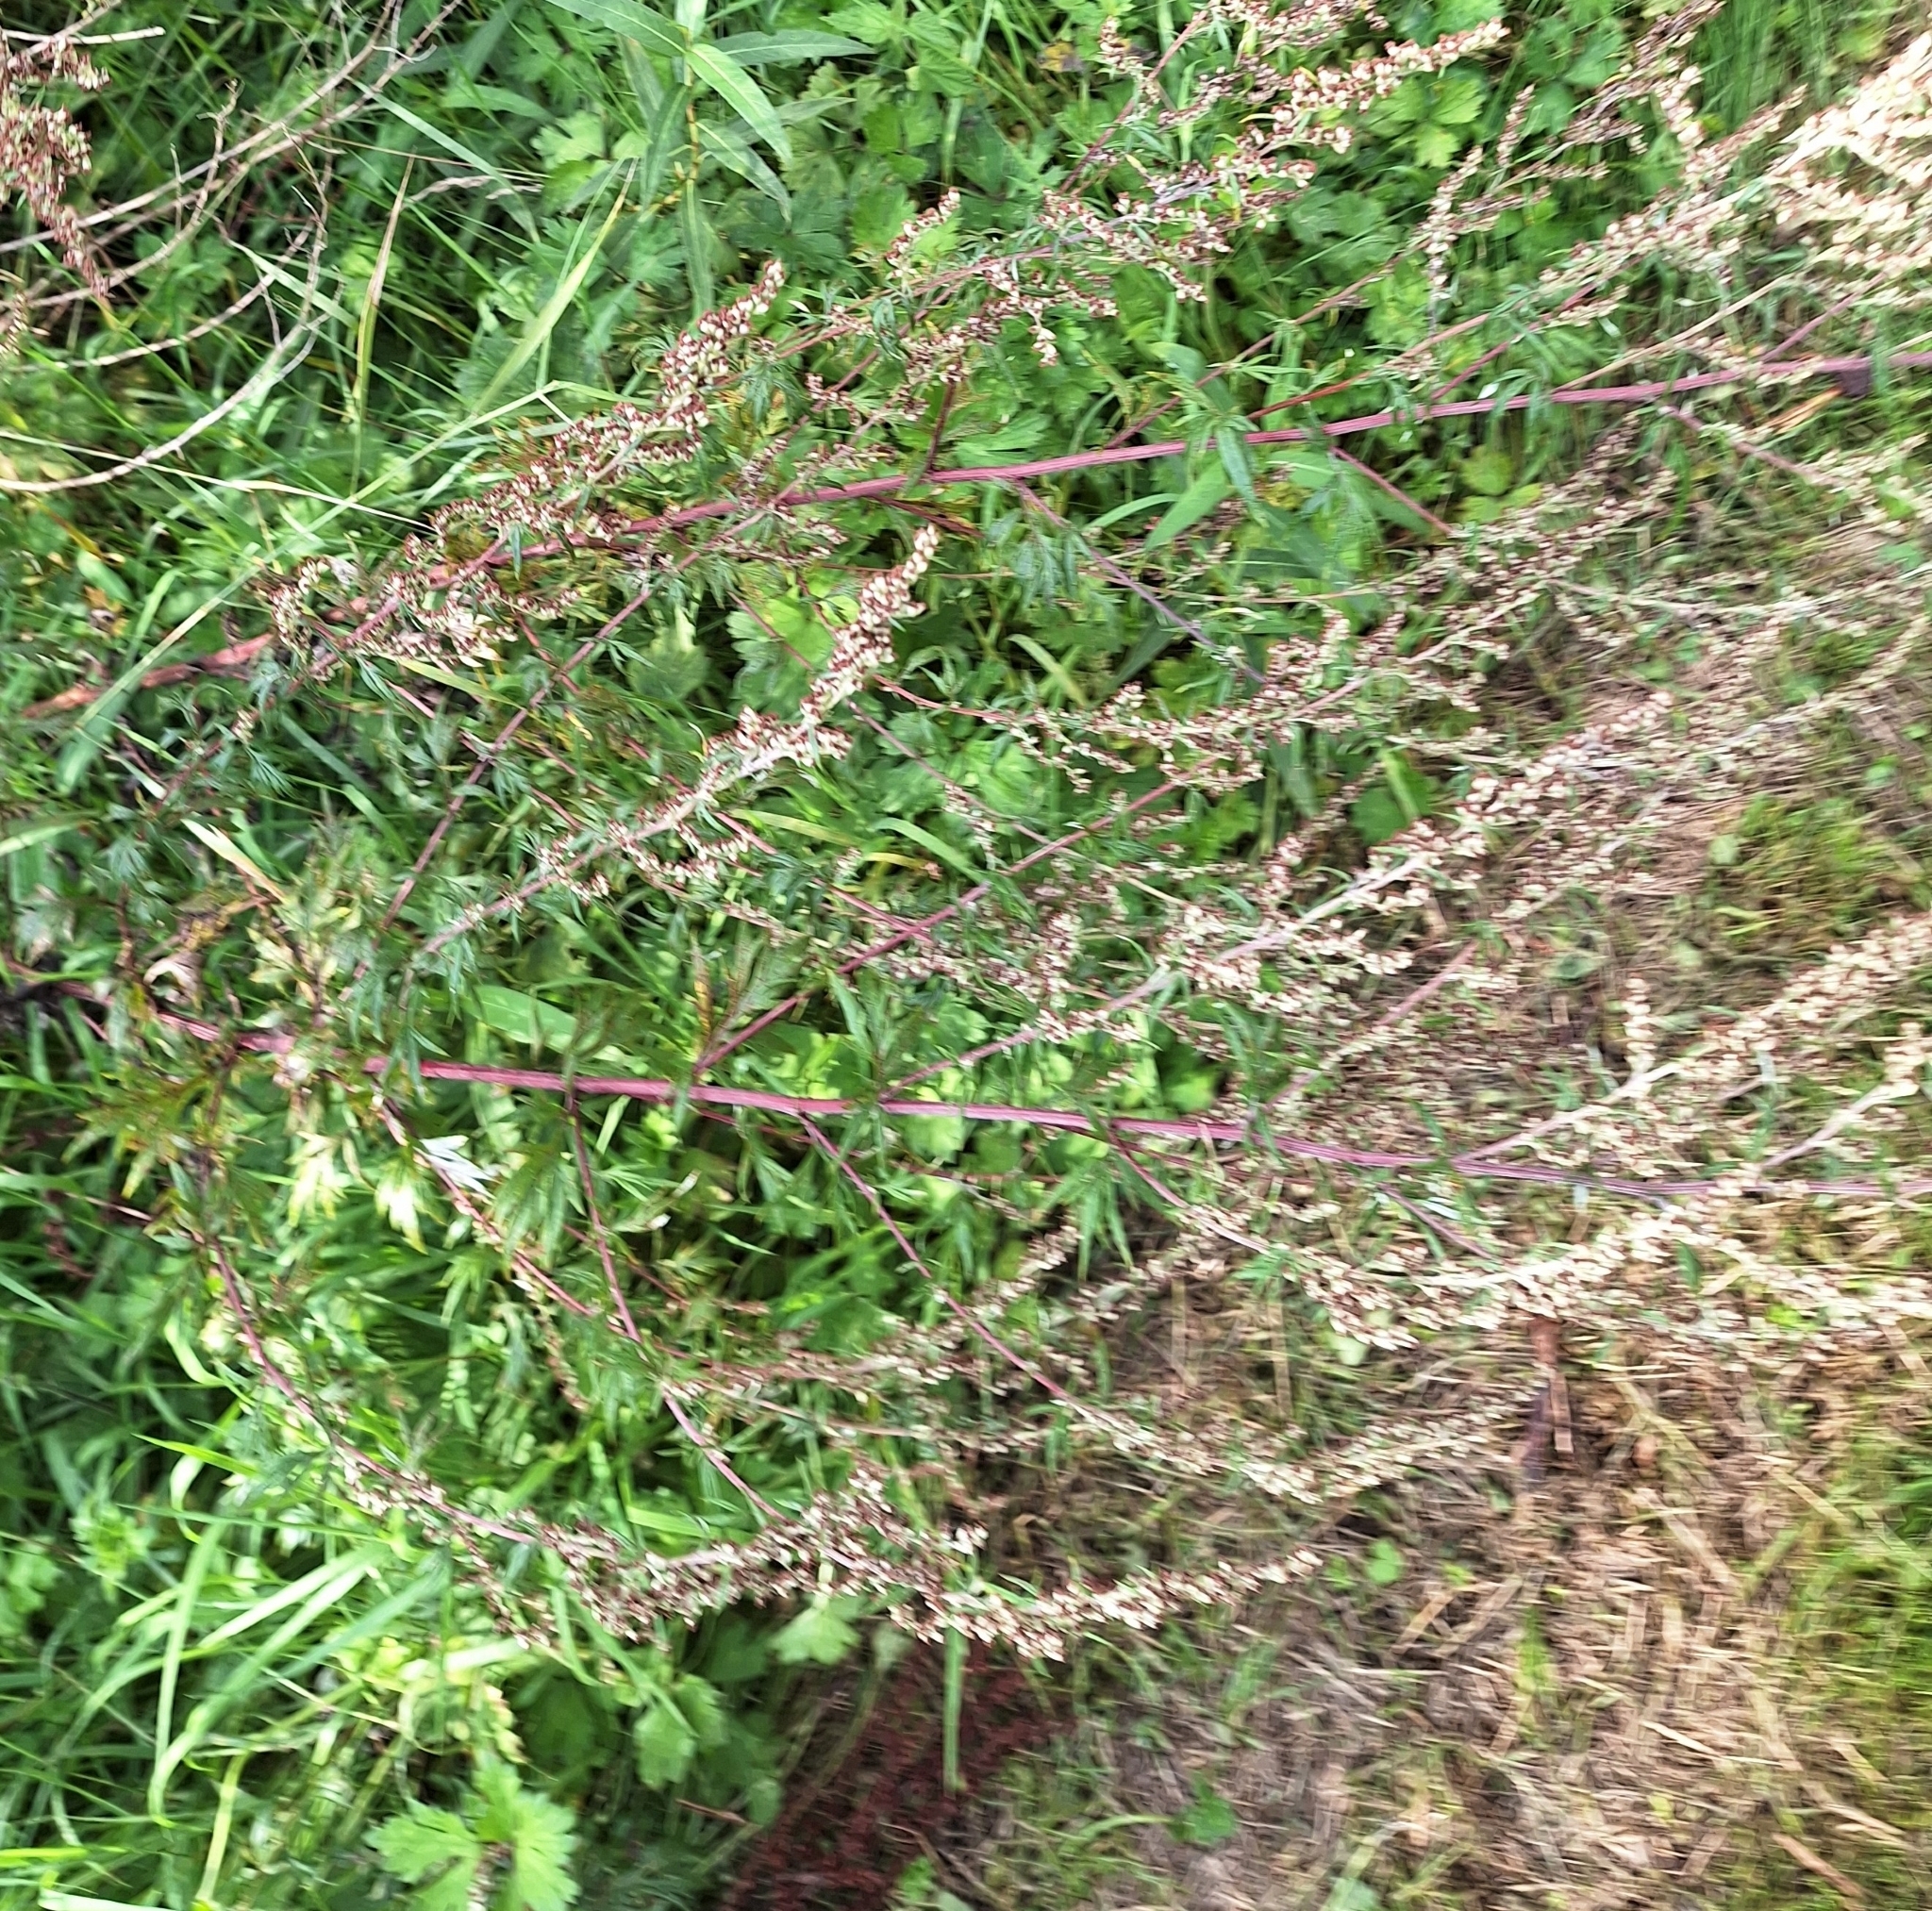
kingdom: Plantae
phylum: Tracheophyta
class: Magnoliopsida
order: Asterales
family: Asteraceae
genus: Artemisia
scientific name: Artemisia vulgaris
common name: Mugwort
